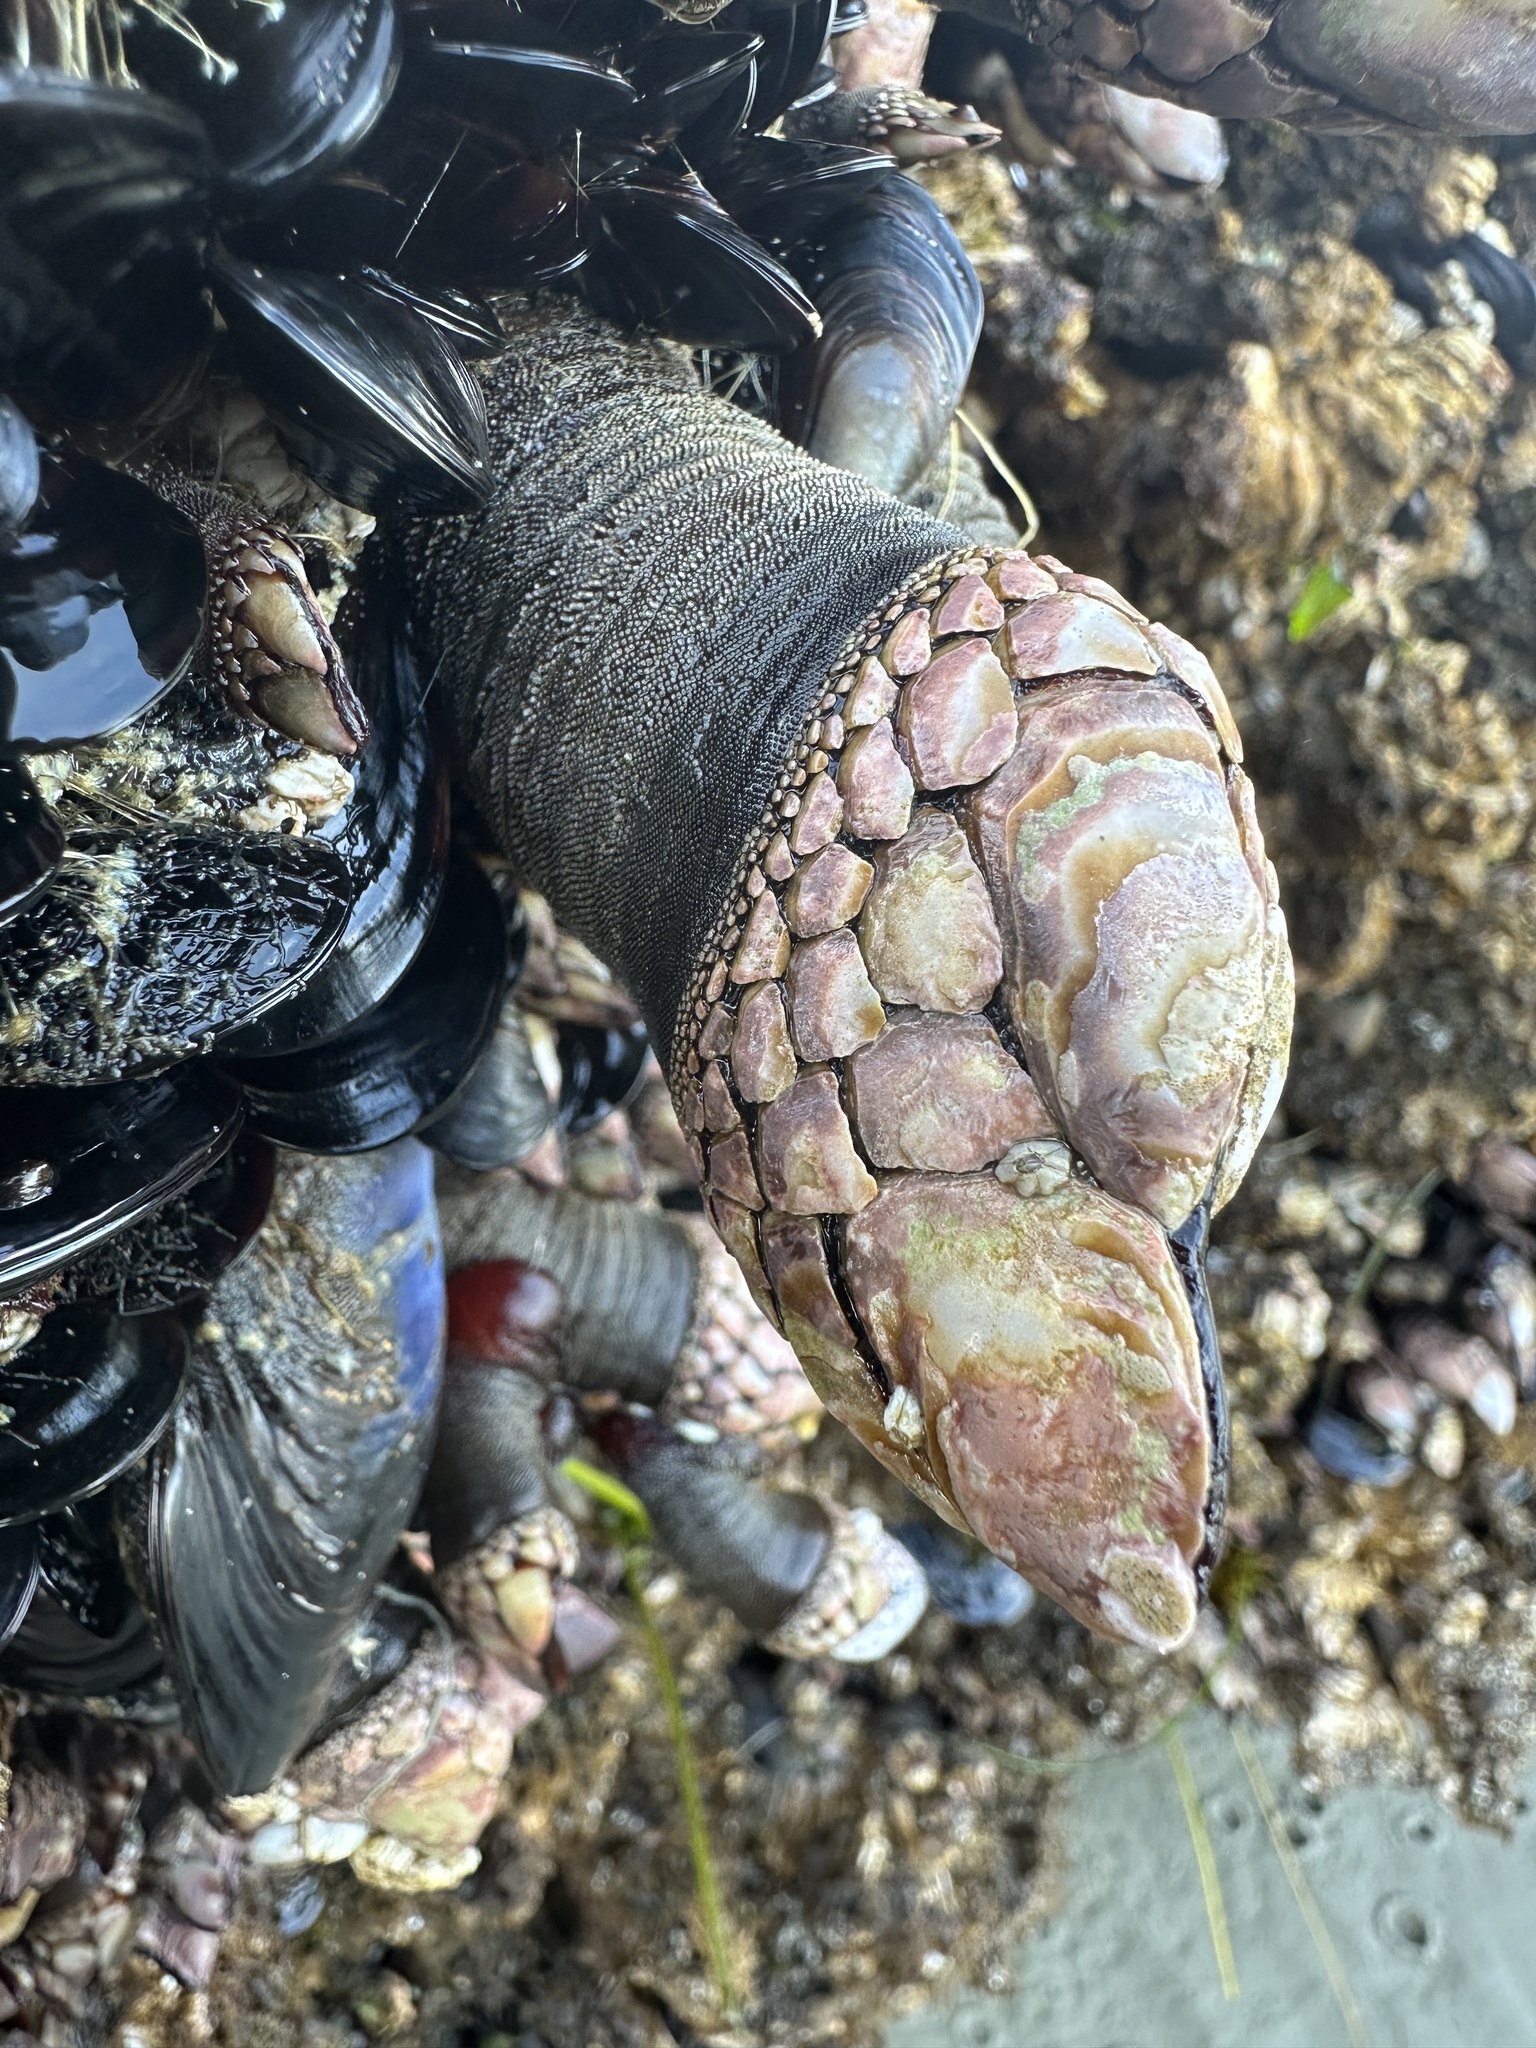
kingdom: Animalia
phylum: Arthropoda
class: Maxillopoda
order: Pedunculata
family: Pollicipedidae
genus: Pollicipes
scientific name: Pollicipes polymerus
